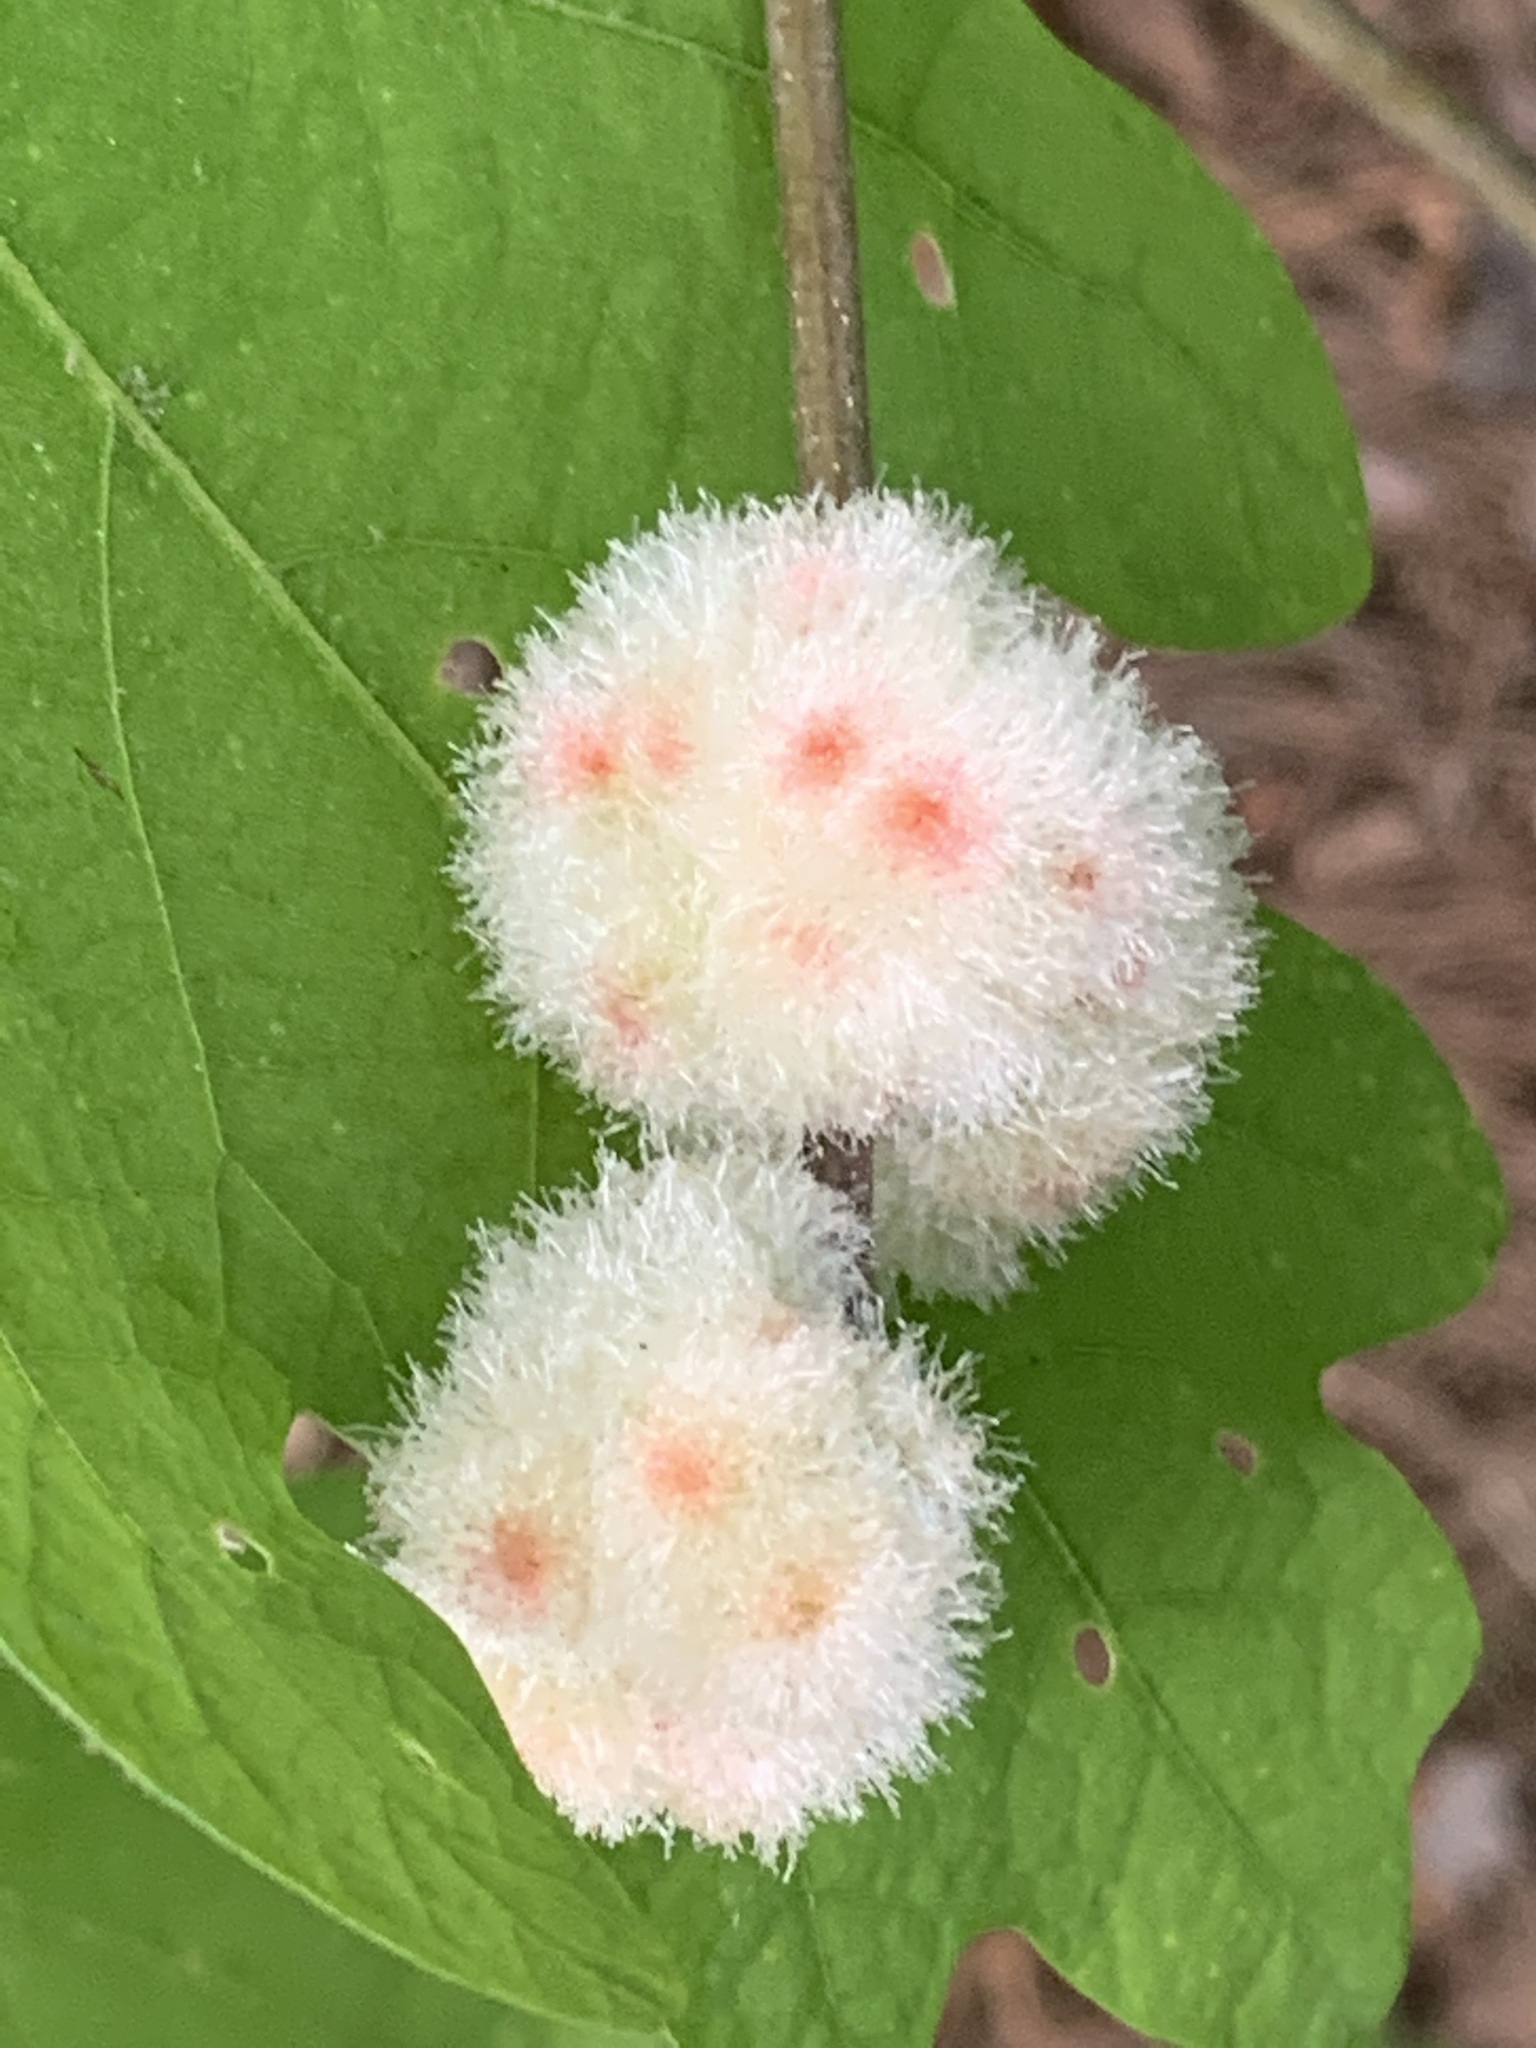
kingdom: Animalia
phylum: Arthropoda
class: Insecta
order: Hymenoptera
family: Cynipidae
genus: Callirhytis
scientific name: Callirhytis
